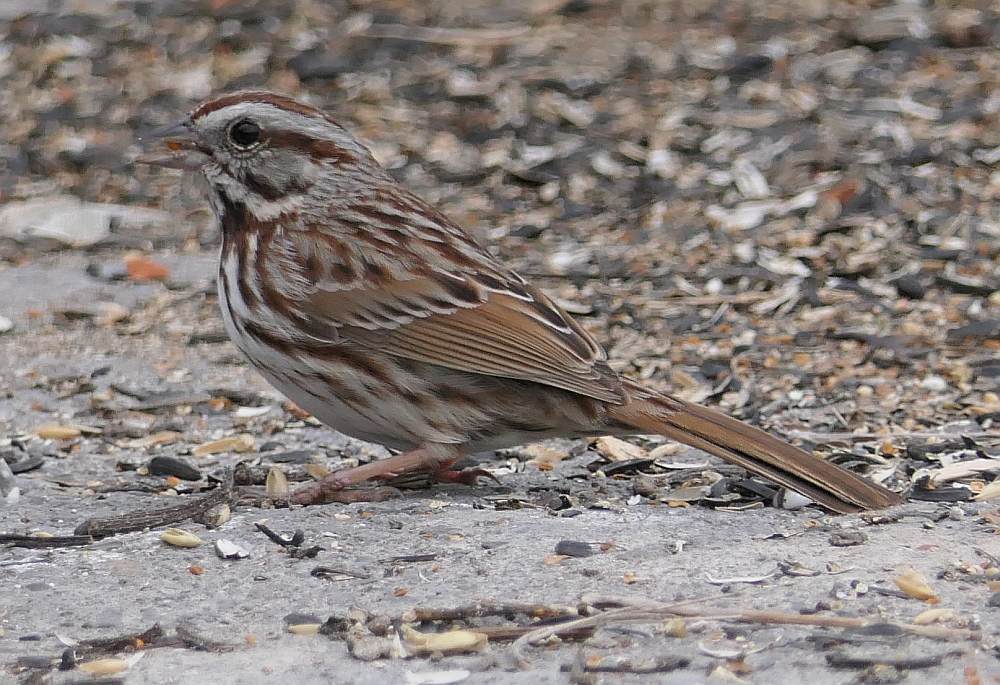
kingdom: Animalia
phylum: Chordata
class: Aves
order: Passeriformes
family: Passerellidae
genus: Melospiza
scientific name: Melospiza melodia
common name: Song sparrow
